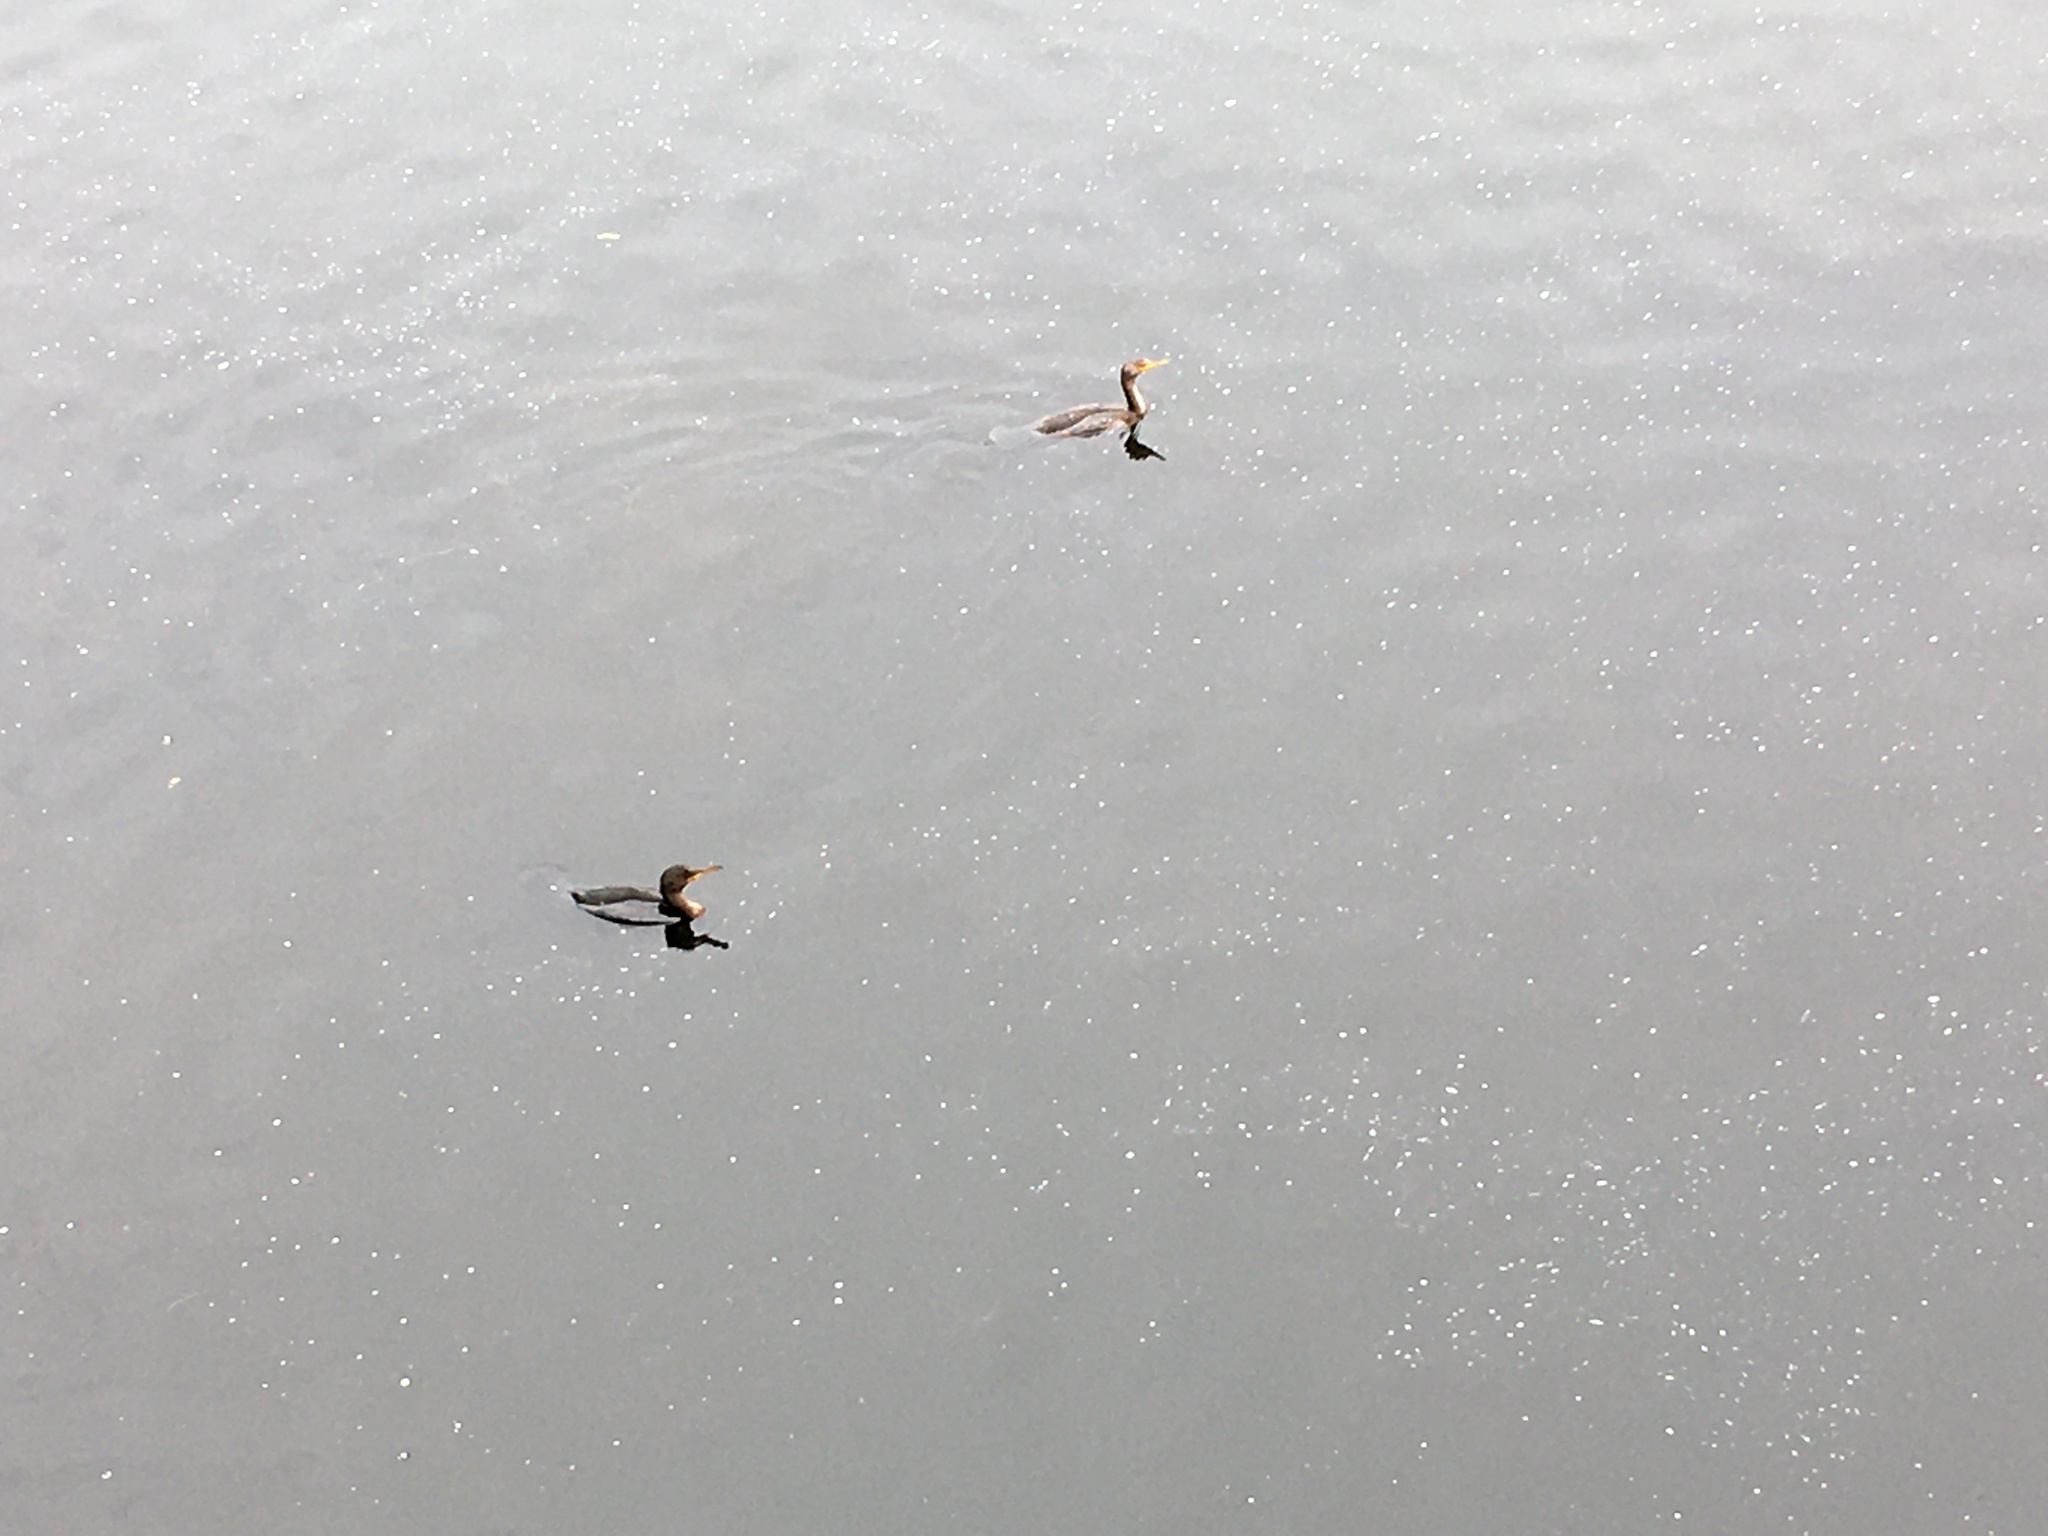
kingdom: Animalia
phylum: Chordata
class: Aves
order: Suliformes
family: Phalacrocoracidae
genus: Phalacrocorax
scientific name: Phalacrocorax auritus
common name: Double-crested cormorant
